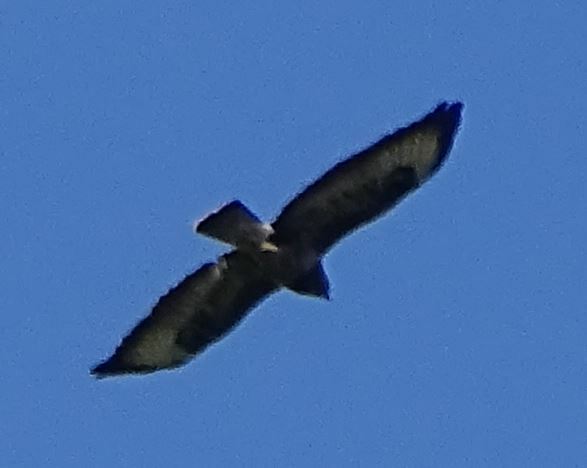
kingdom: Animalia
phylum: Chordata
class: Aves
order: Accipitriformes
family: Accipitridae
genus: Buteo
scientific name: Buteo buteo
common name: Common buzzard
